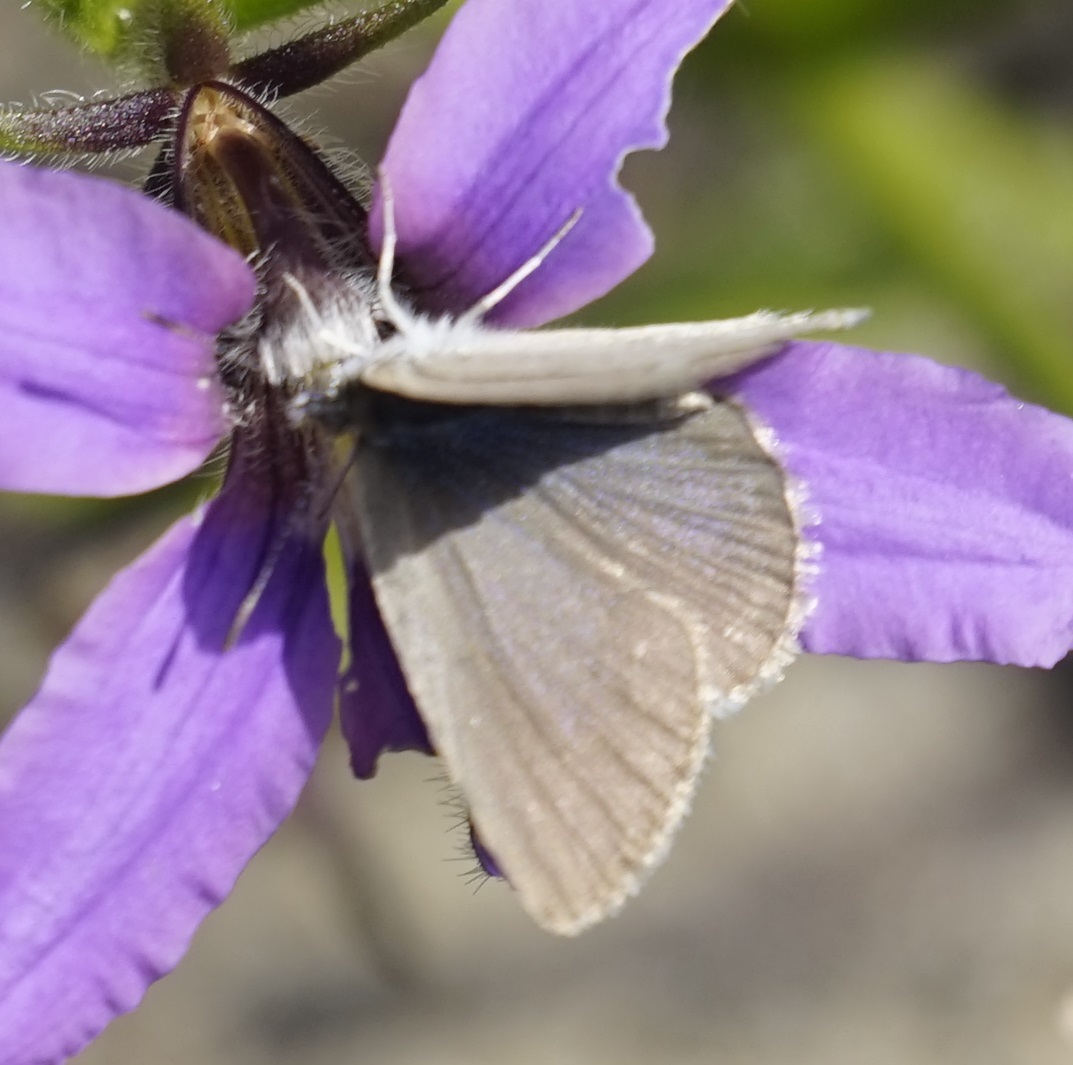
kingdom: Animalia
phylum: Arthropoda
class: Insecta
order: Lepidoptera
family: Lycaenidae
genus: Zizina
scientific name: Zizina labradus
